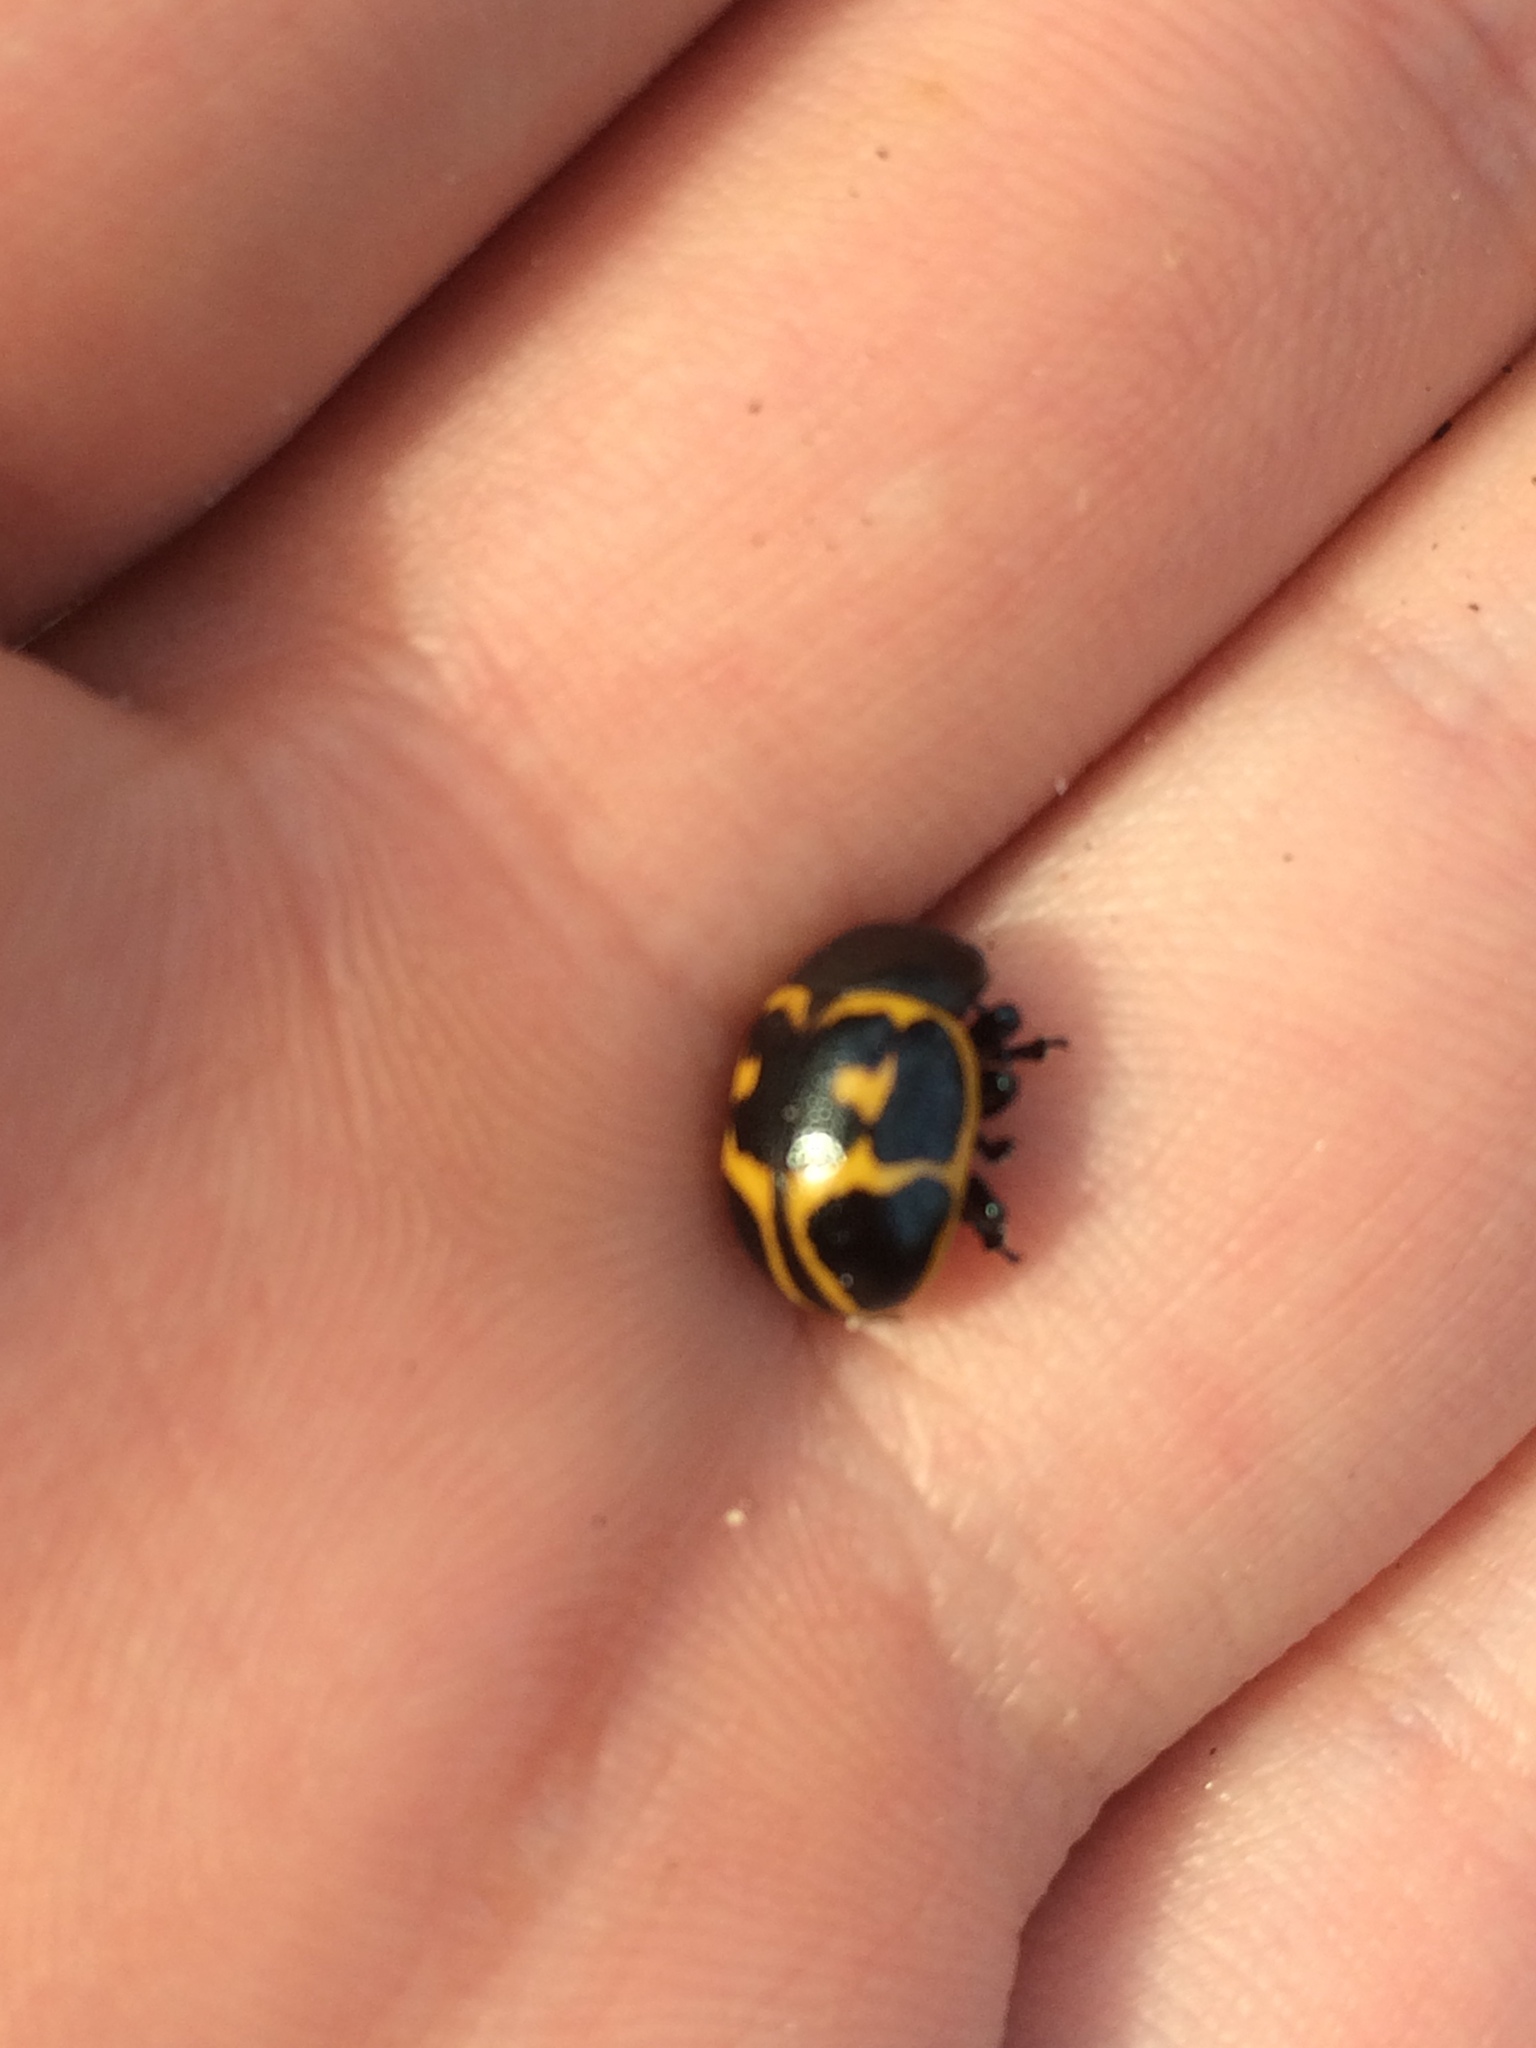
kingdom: Animalia
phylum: Arthropoda
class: Insecta
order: Coleoptera
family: Chrysomelidae
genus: Labidomera
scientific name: Labidomera clivicollis
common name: Swamp milkweed leaf beetle
